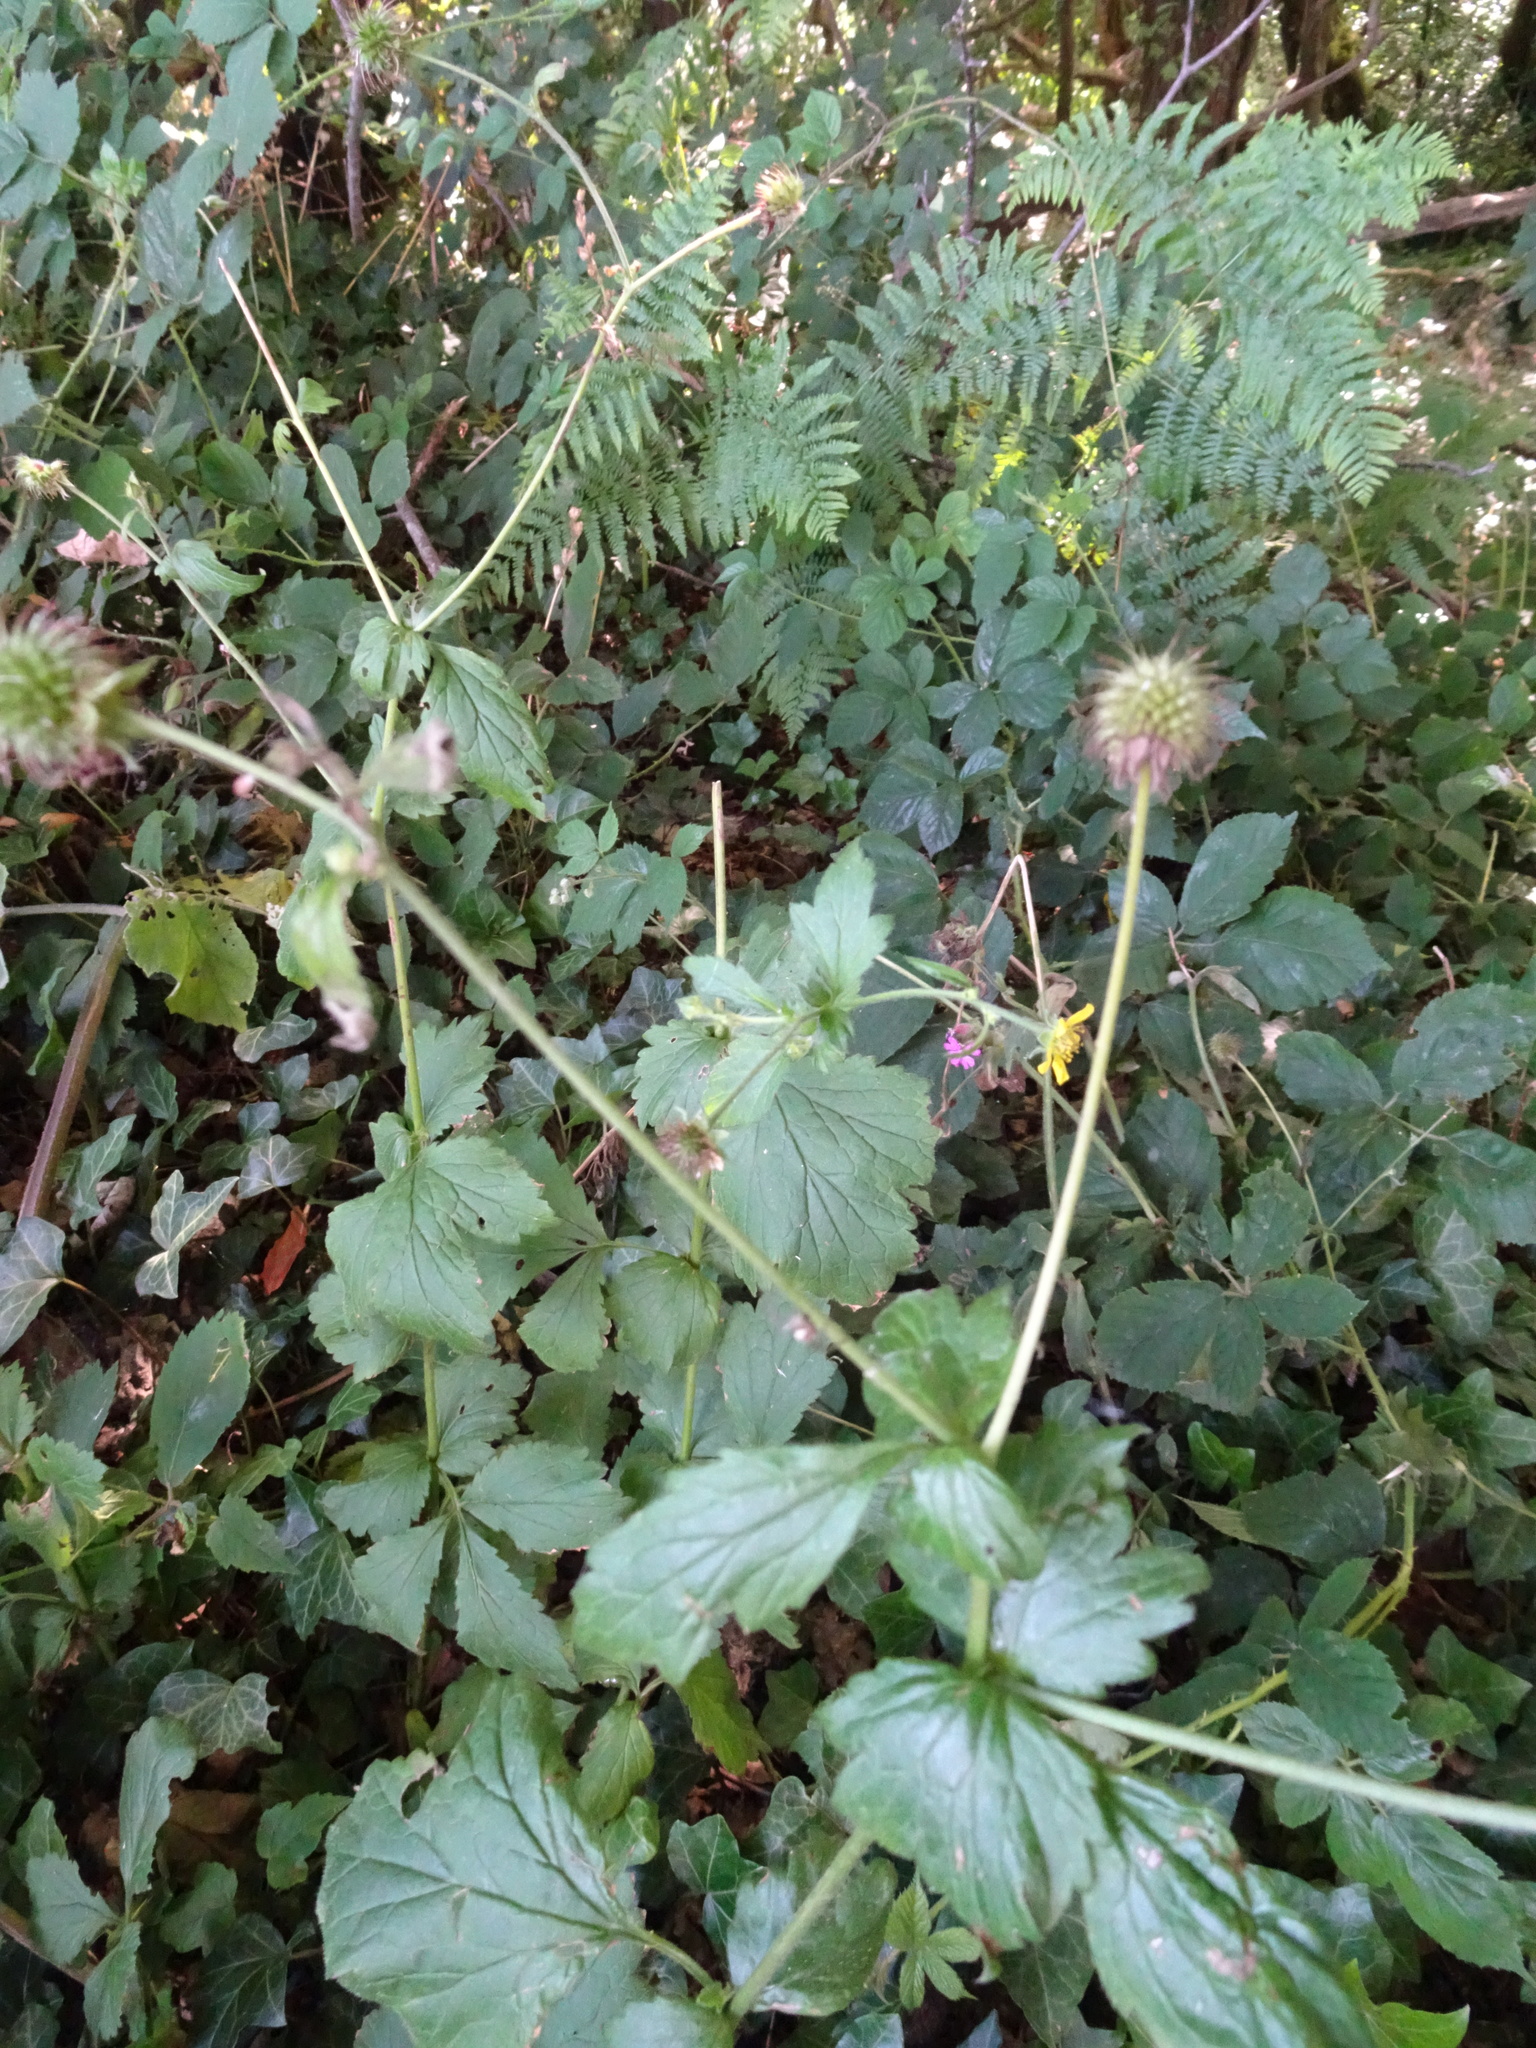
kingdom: Plantae
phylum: Tracheophyta
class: Magnoliopsida
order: Rosales
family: Rosaceae
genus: Geum
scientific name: Geum urbanum
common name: Wood avens
